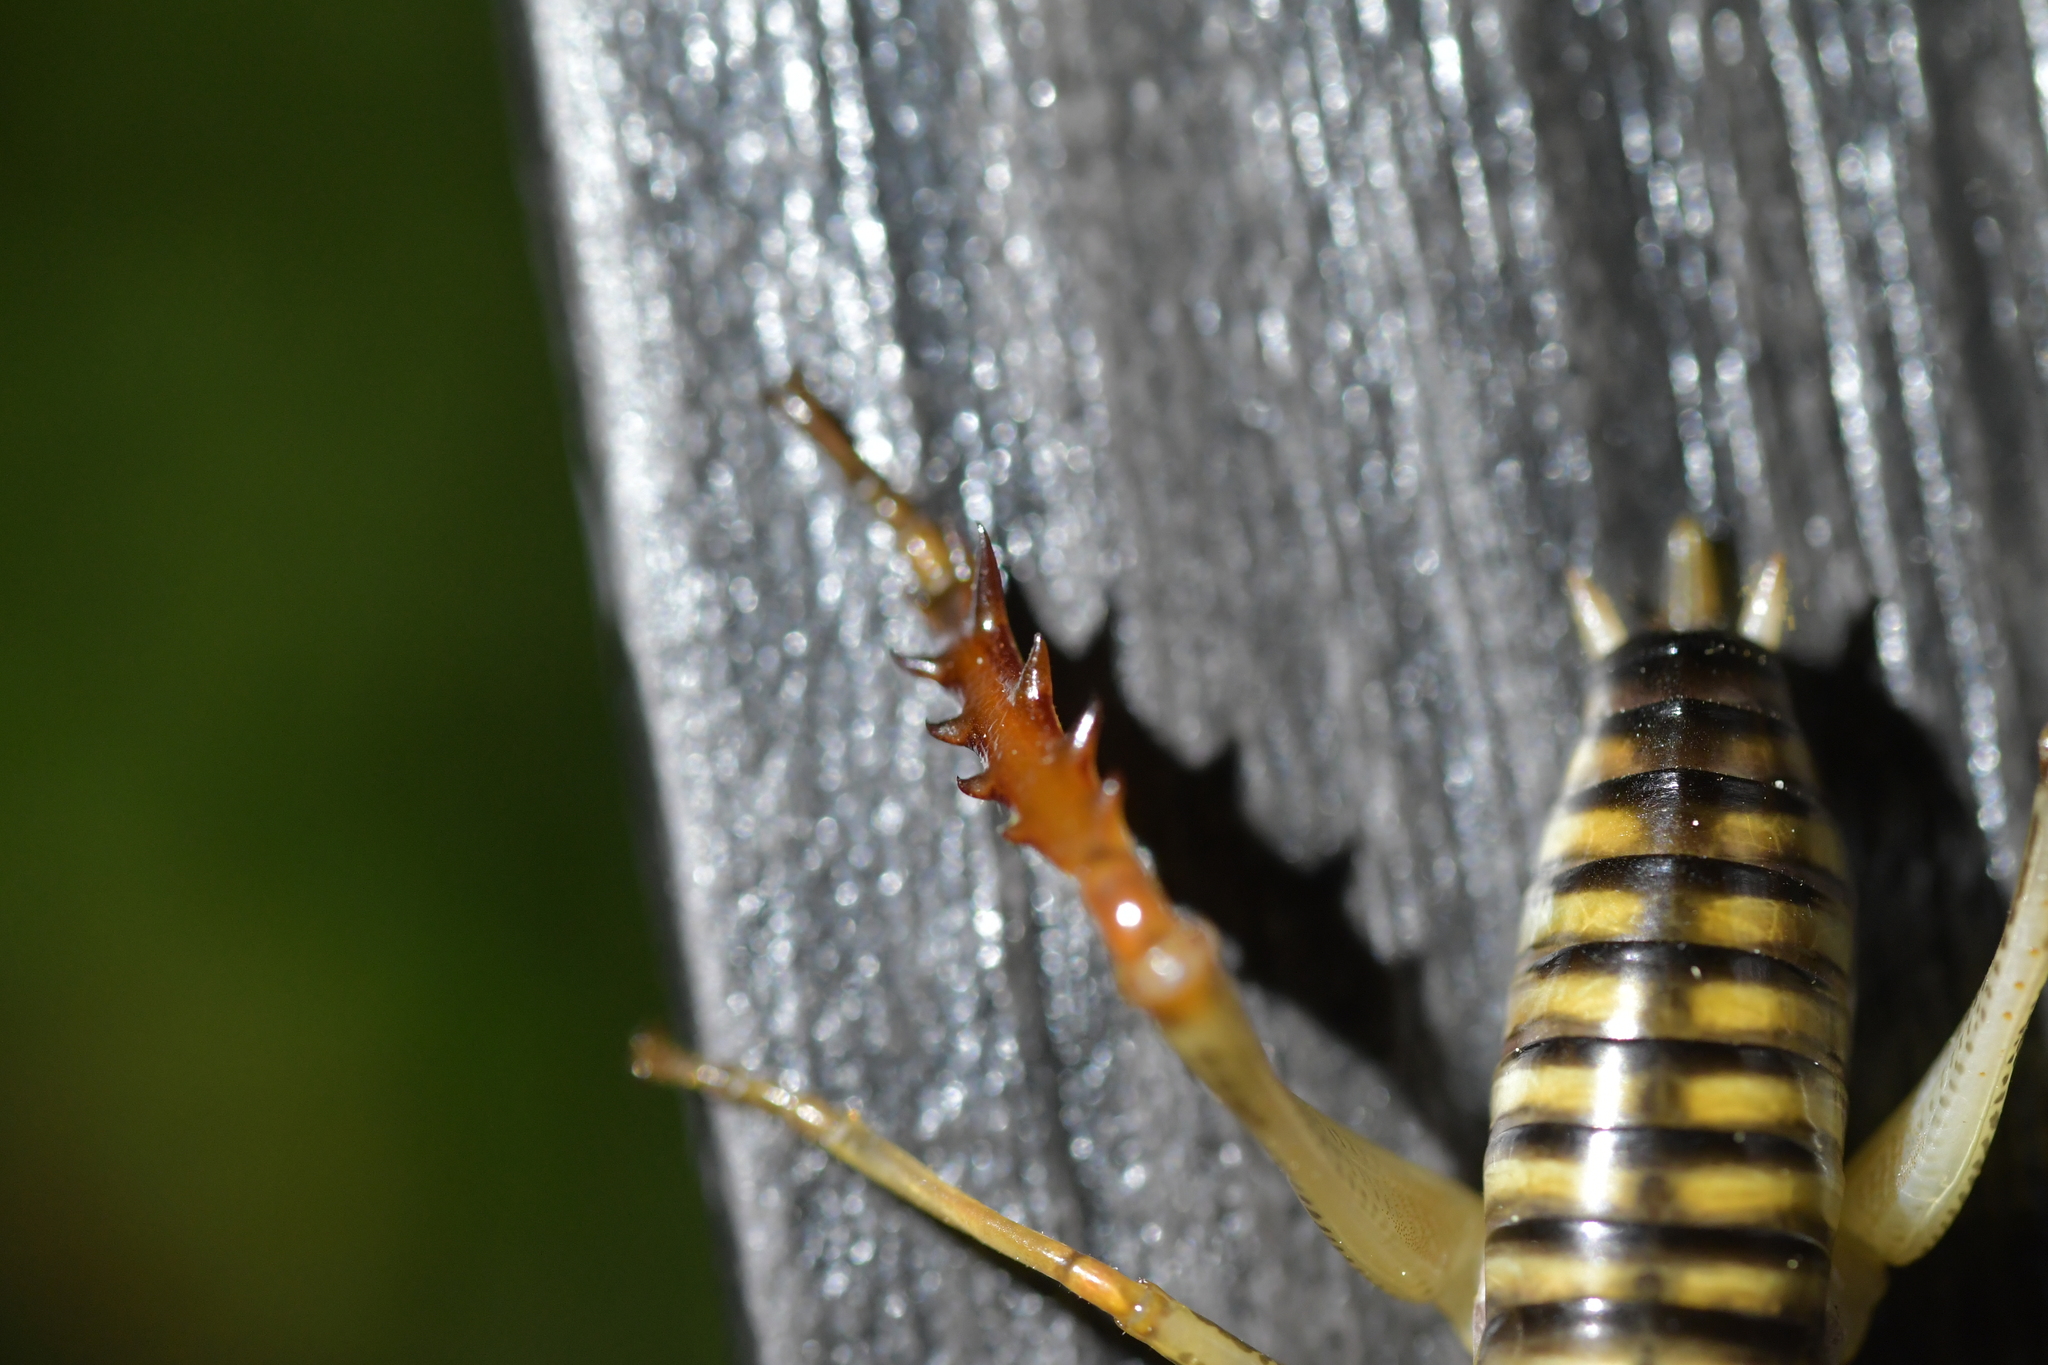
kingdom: Animalia
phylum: Arthropoda
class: Insecta
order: Orthoptera
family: Anostostomatidae
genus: Hemideina
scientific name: Hemideina crassidens
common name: Wellington tree weta
